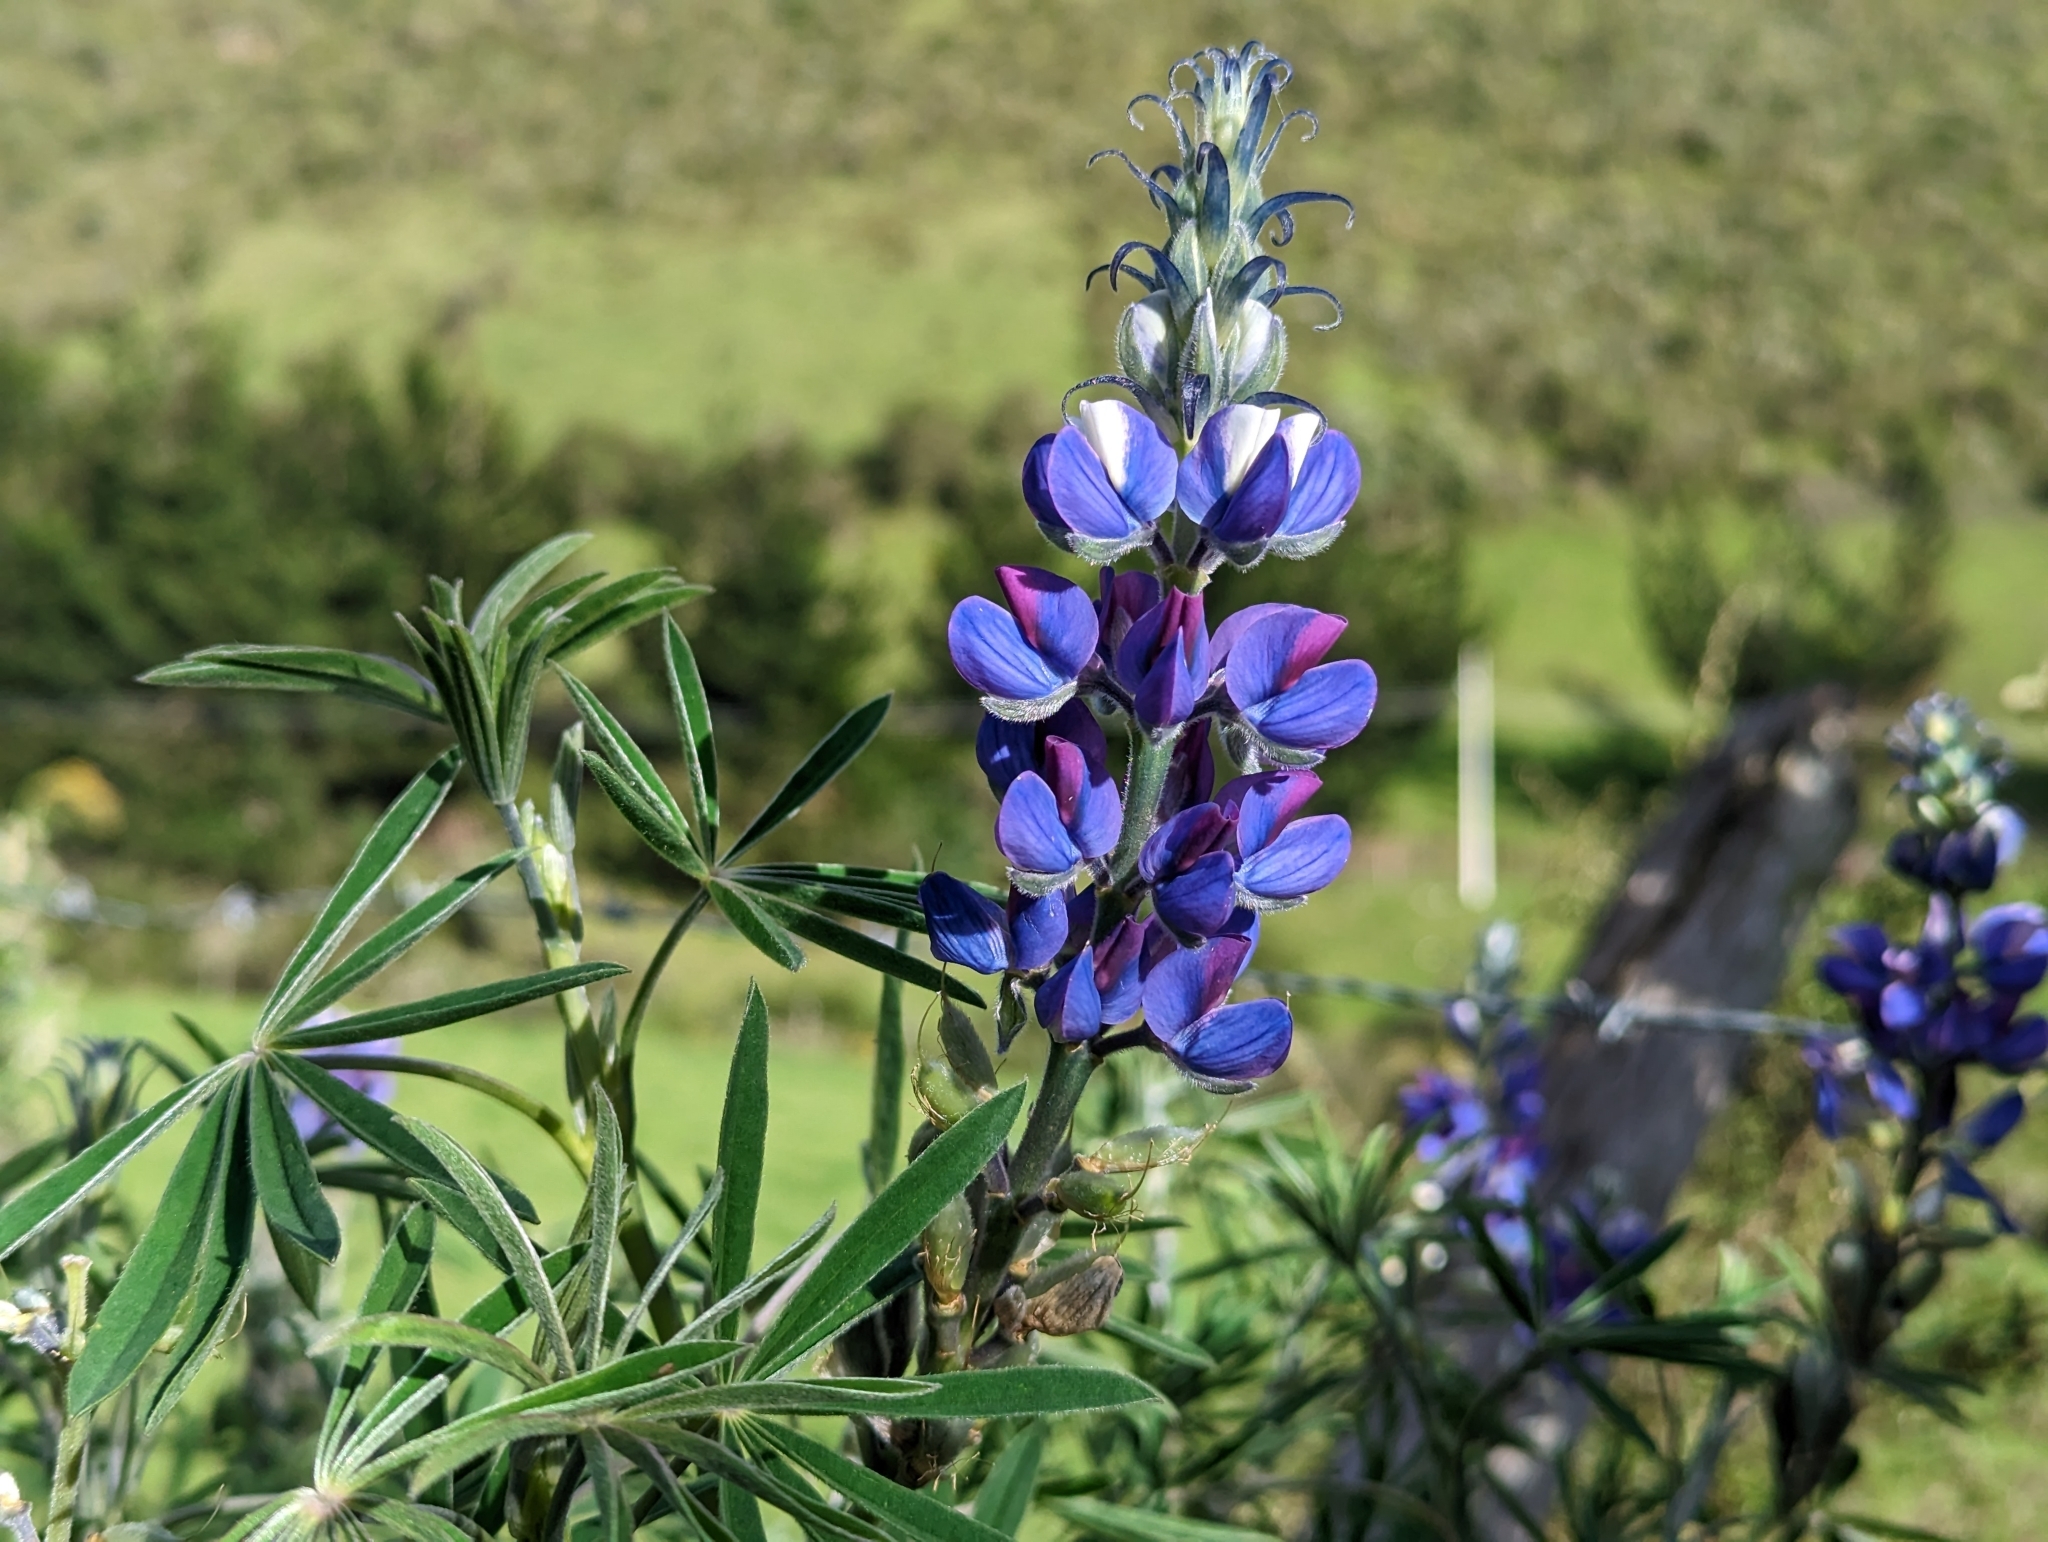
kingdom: Plantae
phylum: Tracheophyta
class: Magnoliopsida
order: Fabales
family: Fabaceae
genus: Lupinus
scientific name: Lupinus pubescens
